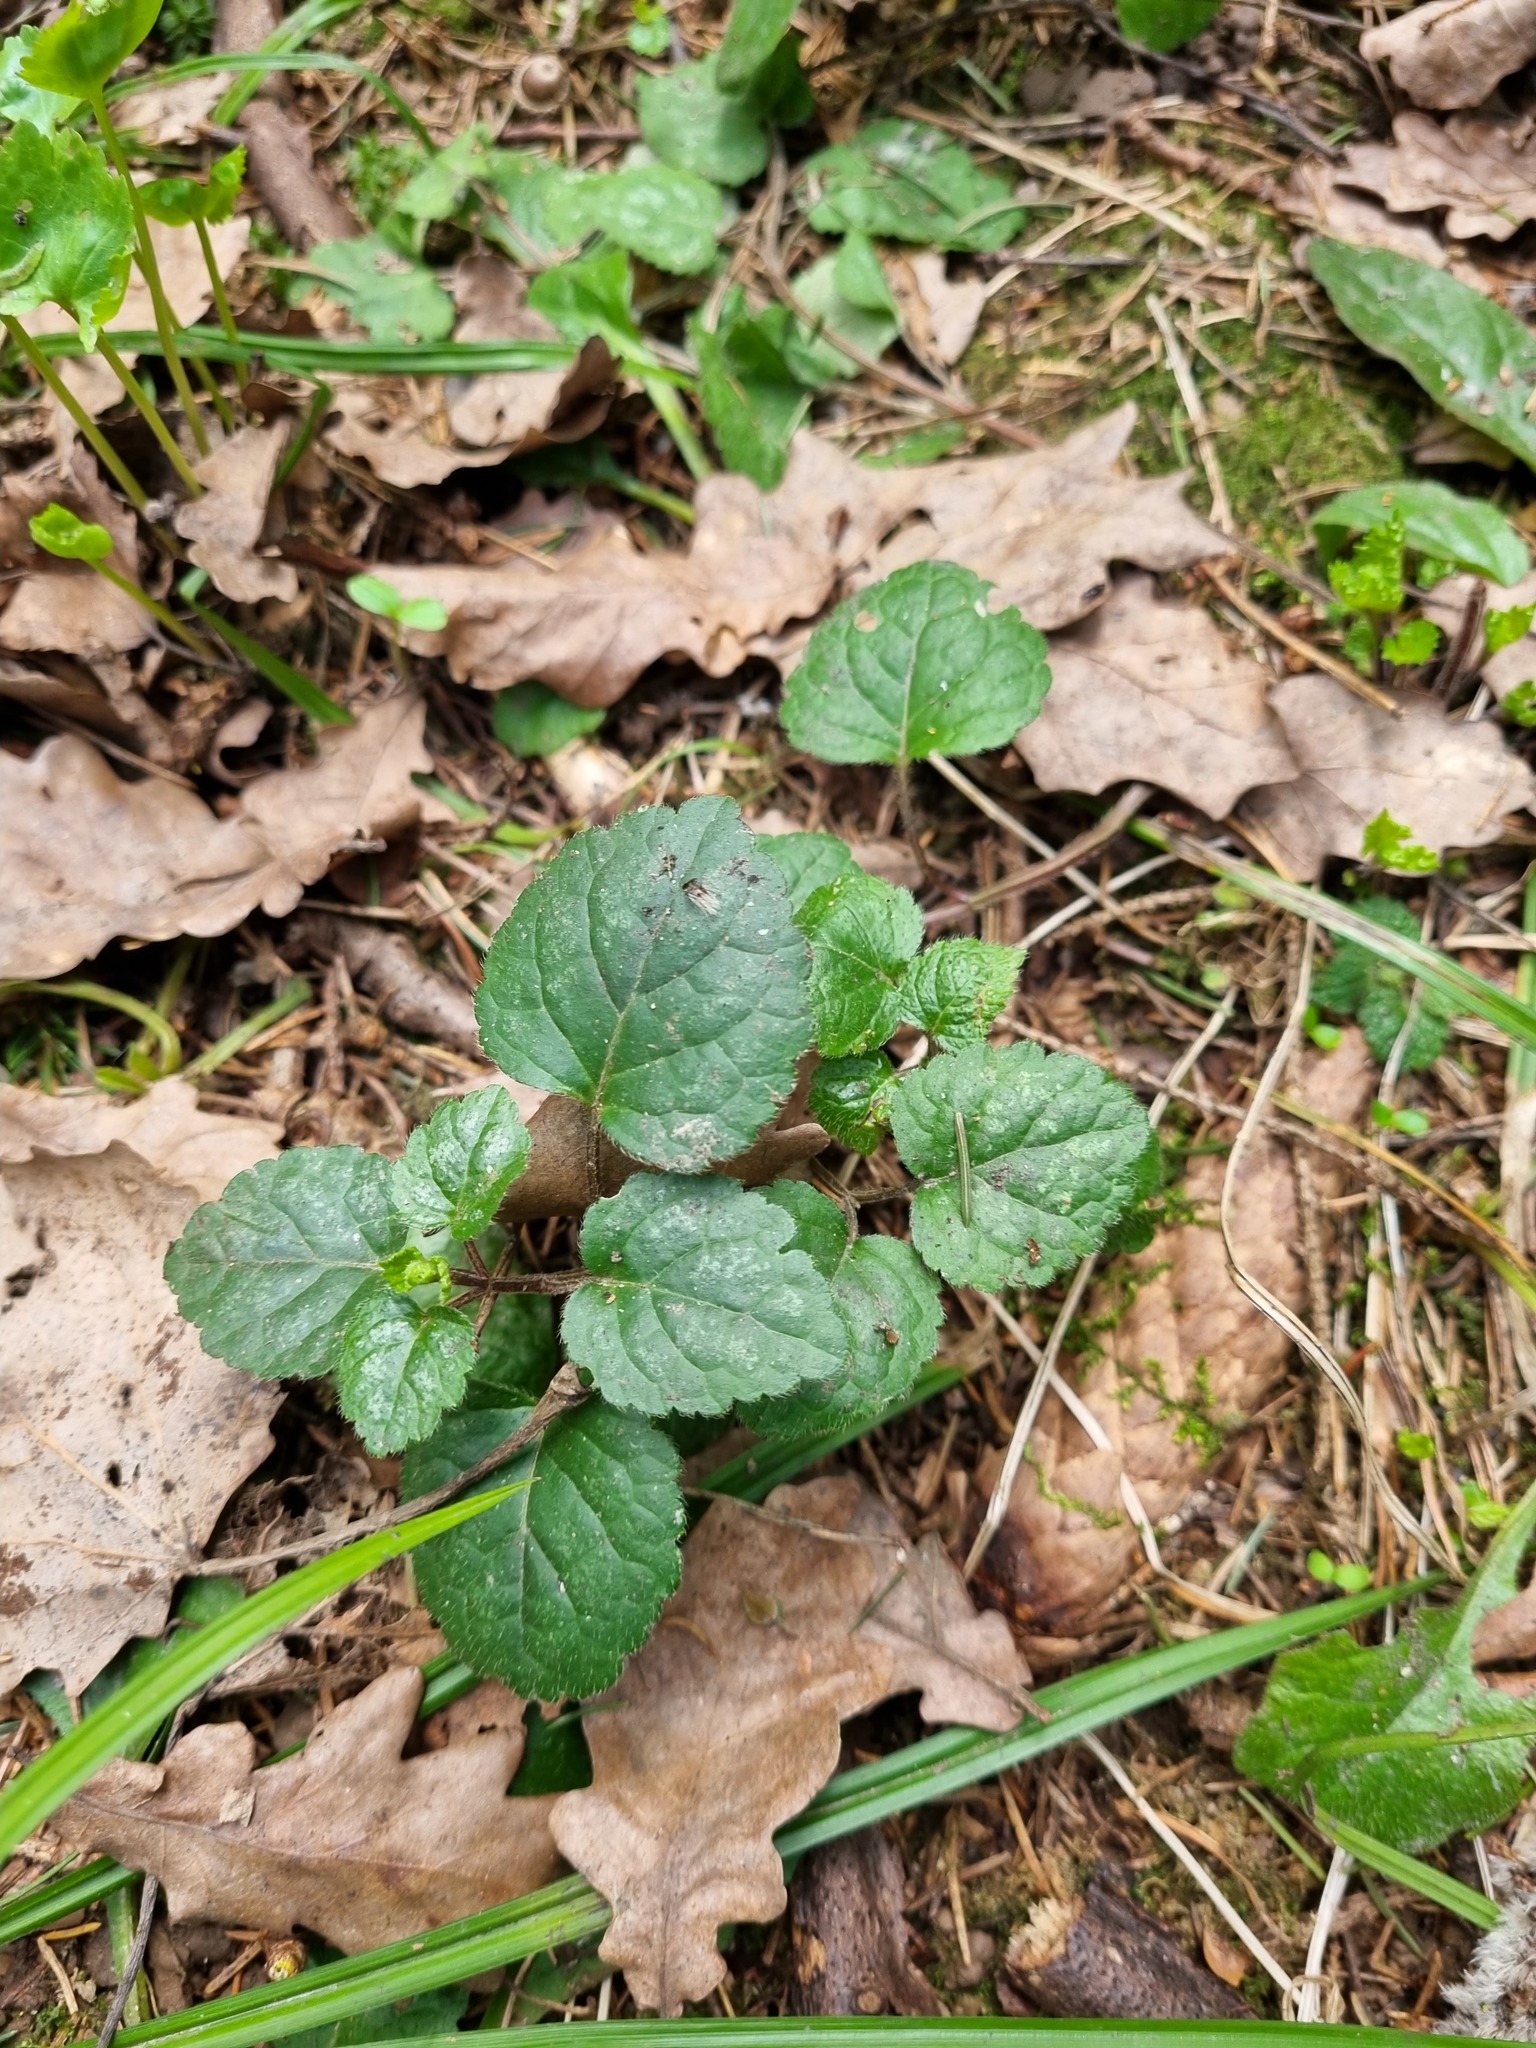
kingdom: Plantae
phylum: Tracheophyta
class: Magnoliopsida
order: Lamiales
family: Lamiaceae
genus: Lamium
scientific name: Lamium galeobdolon
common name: Yellow archangel
